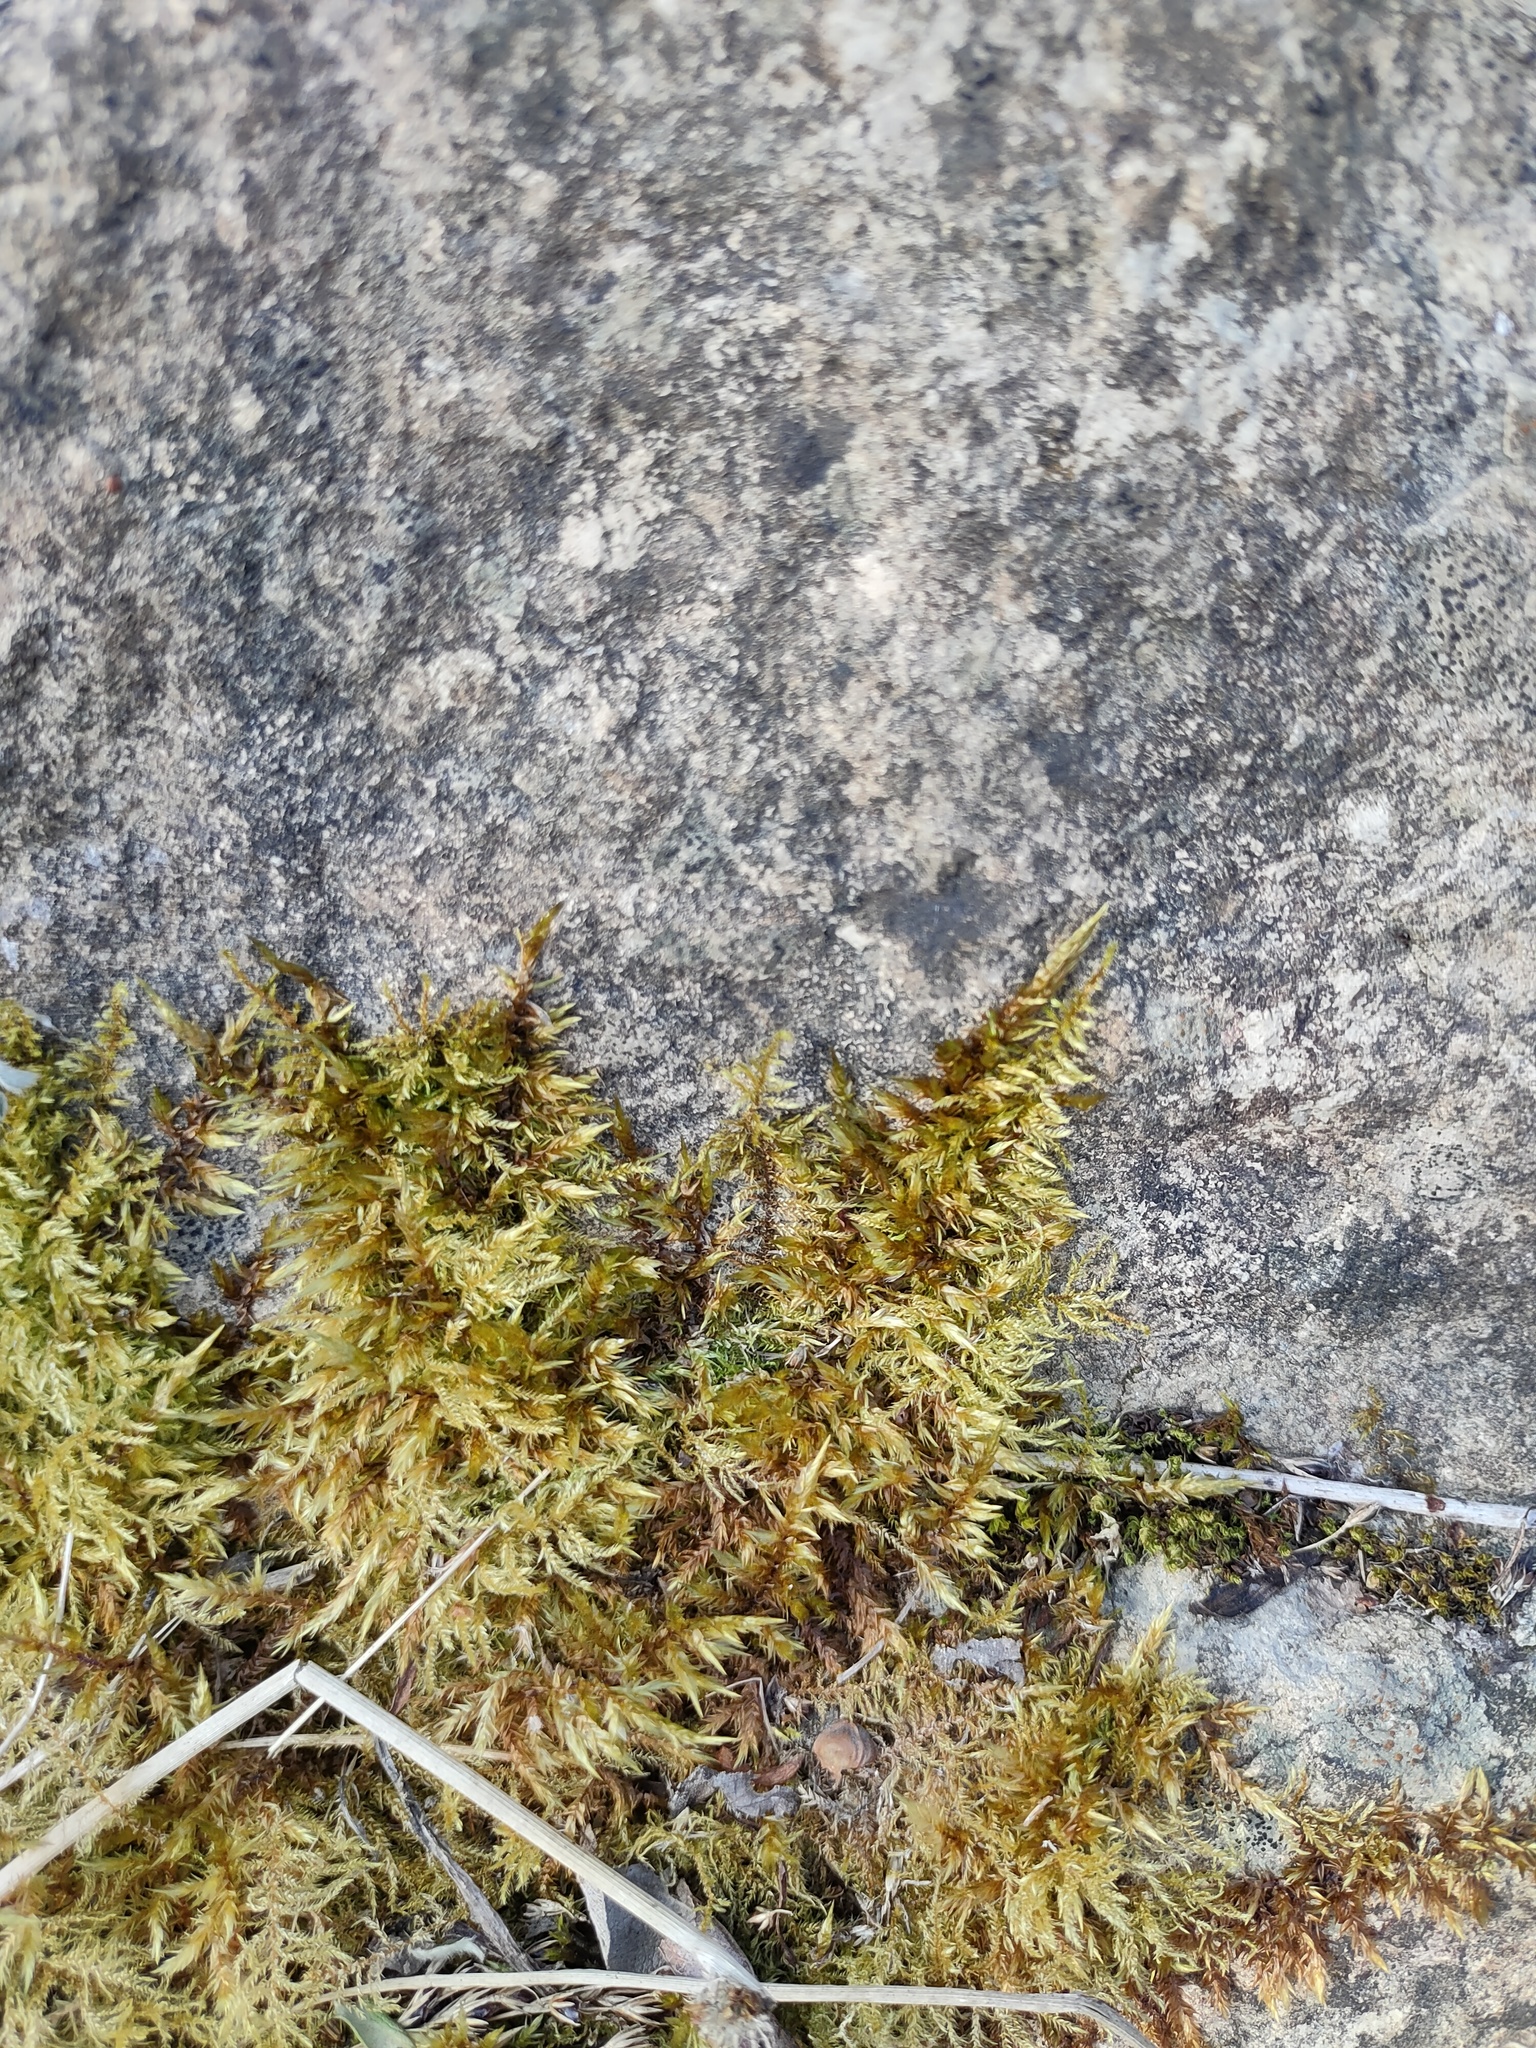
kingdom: Plantae
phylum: Bryophyta
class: Bryopsida
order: Hypnales
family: Pylaisiaceae
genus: Calliergonella
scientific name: Calliergonella cuspidata
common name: Common large wetland moss
